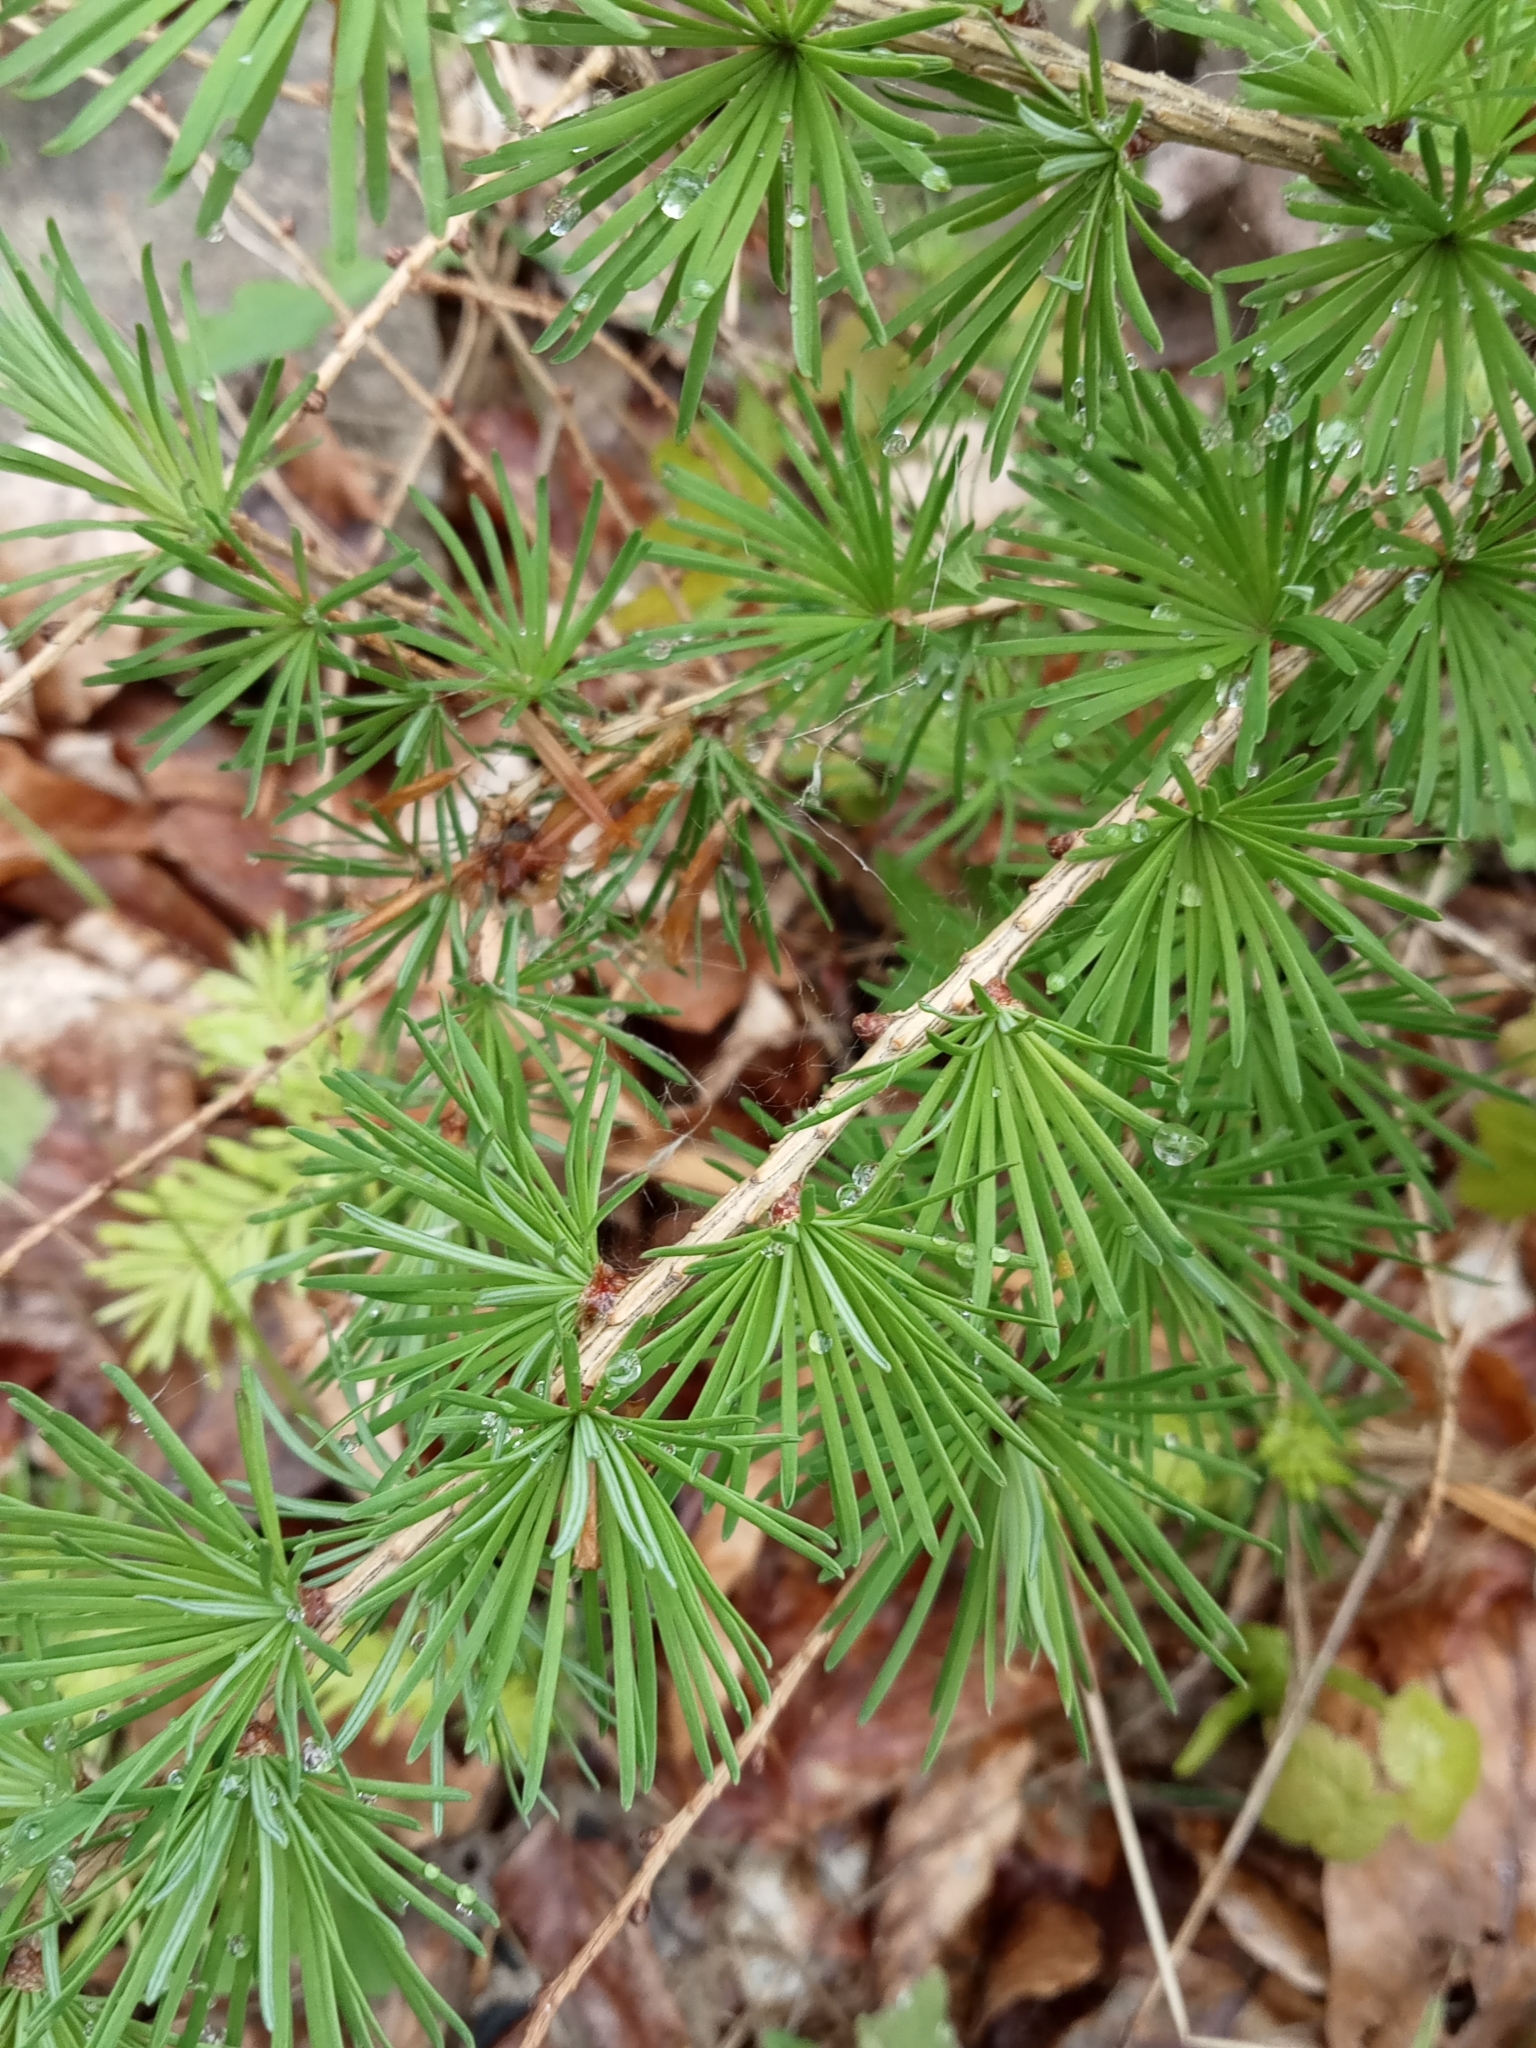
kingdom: Plantae
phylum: Tracheophyta
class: Pinopsida
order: Pinales
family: Pinaceae
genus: Larix
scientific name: Larix decidua
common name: European larch
